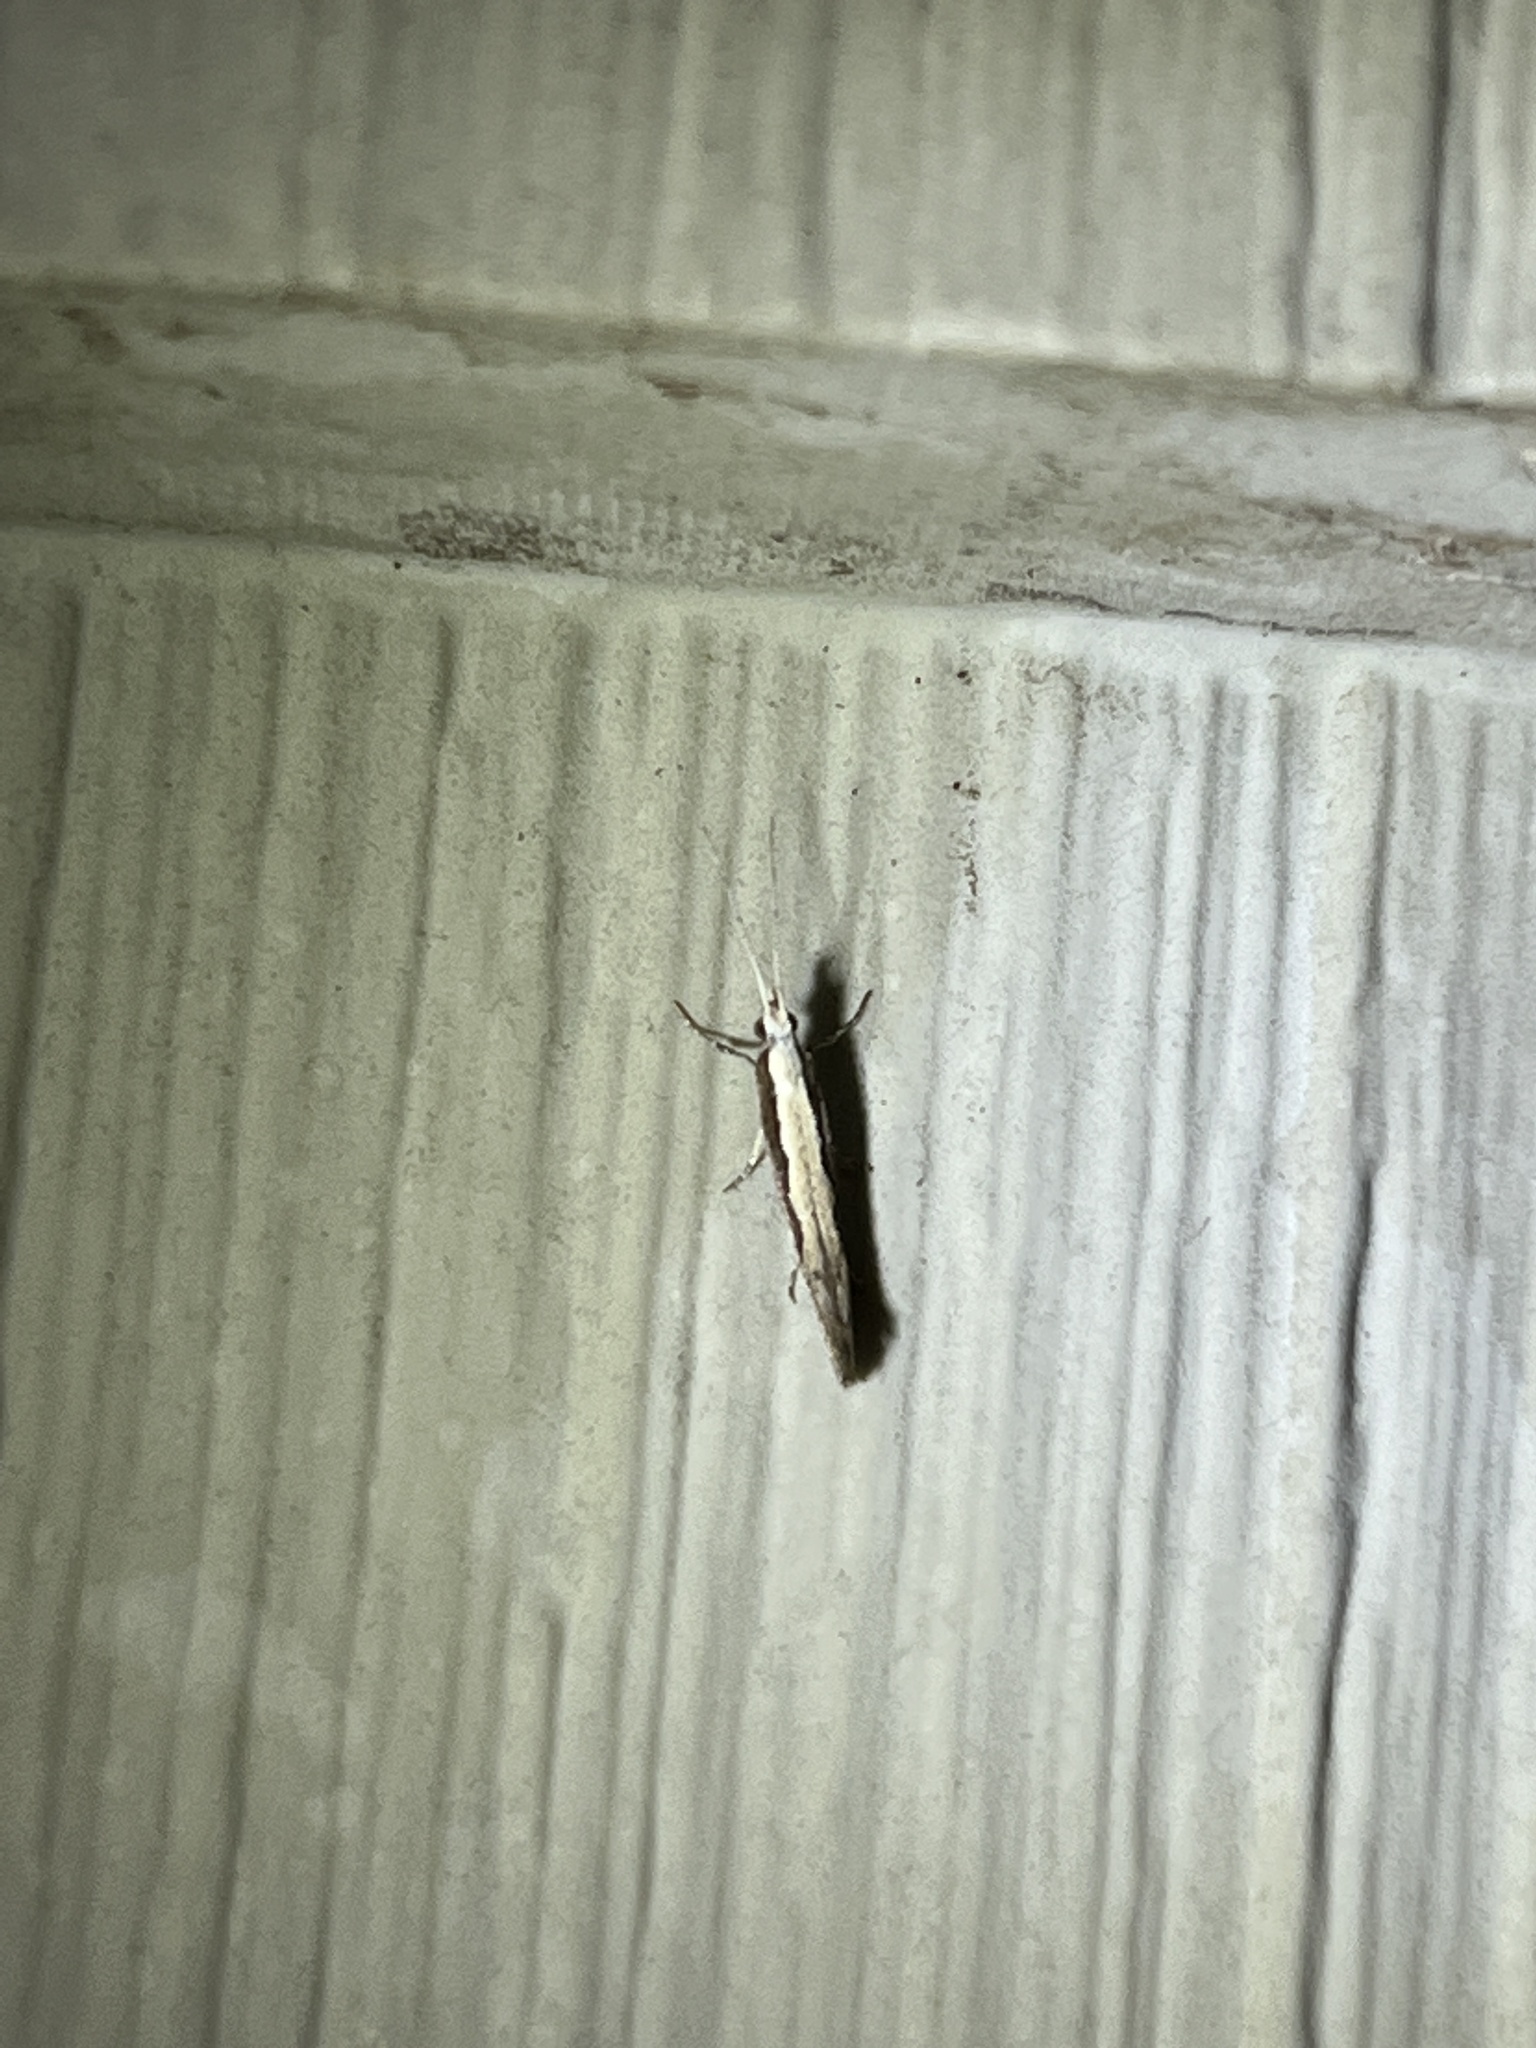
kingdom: Animalia
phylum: Arthropoda
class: Insecta
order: Lepidoptera
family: Plutellidae
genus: Plutella
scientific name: Plutella xylostella
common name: Diamond-back moth
